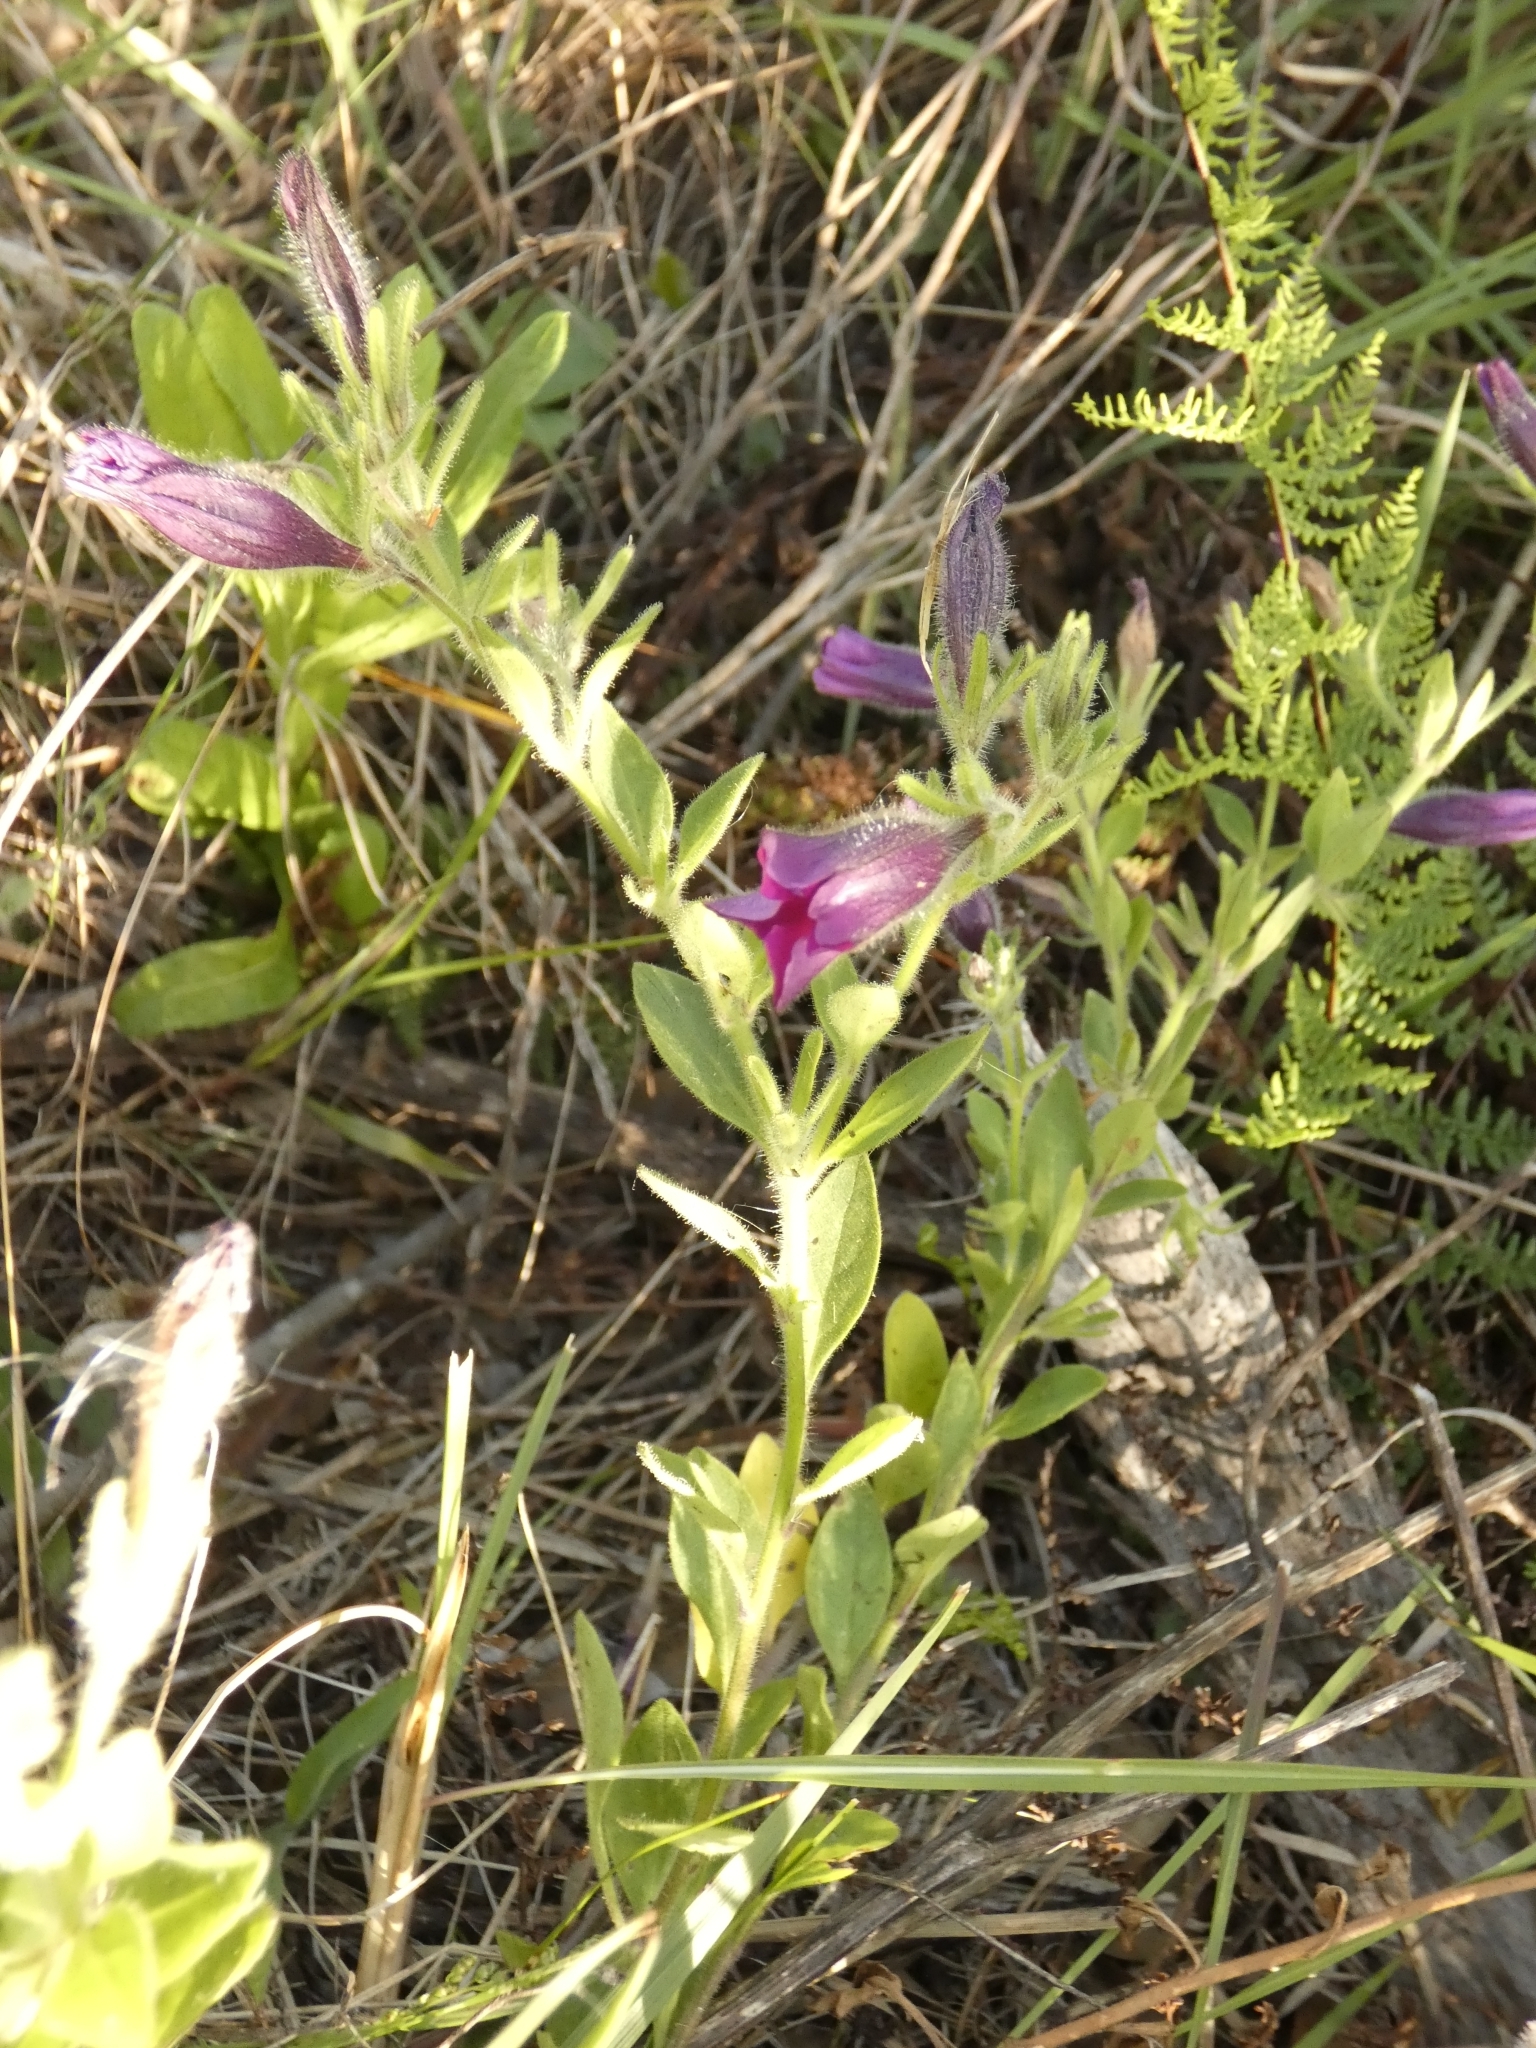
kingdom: Plantae
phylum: Tracheophyta
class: Magnoliopsida
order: Solanales
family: Solanaceae
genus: Petunia
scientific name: Petunia integrifolia
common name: Violet-flower petunia
